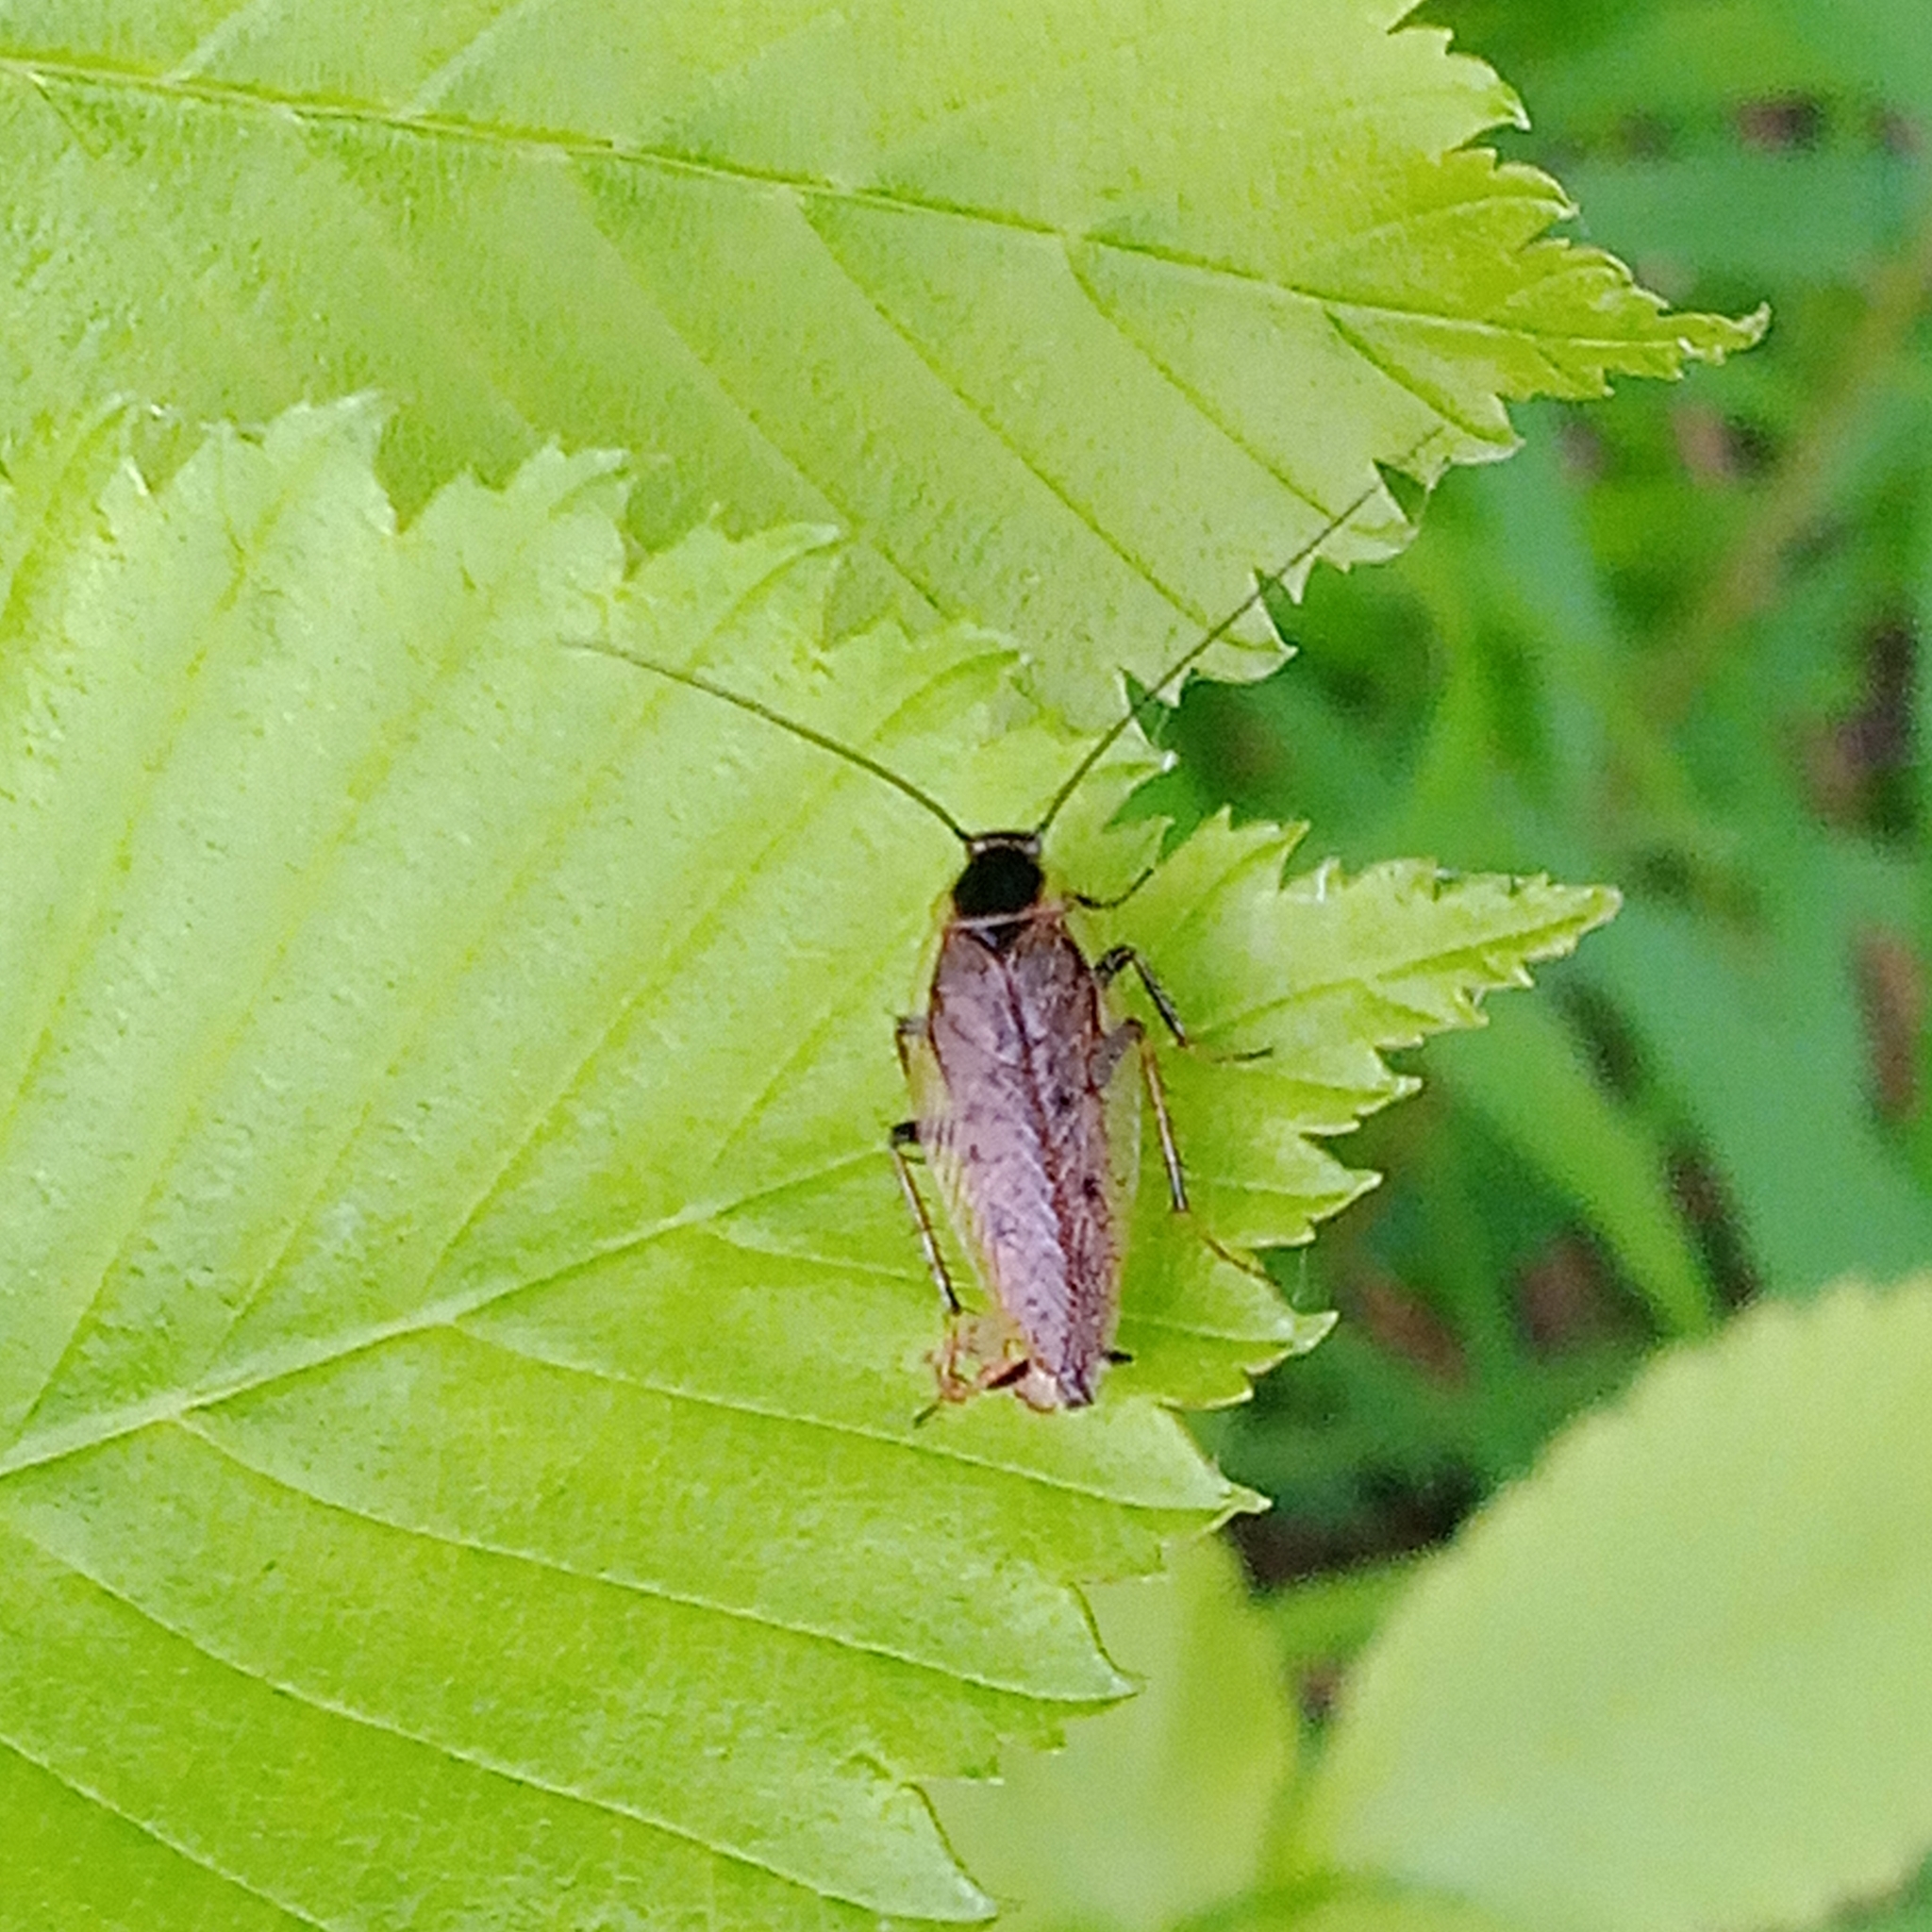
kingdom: Animalia
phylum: Arthropoda
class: Insecta
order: Blattodea
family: Ectobiidae
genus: Ectobius
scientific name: Ectobius lapponicus
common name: Dusky cockroach
